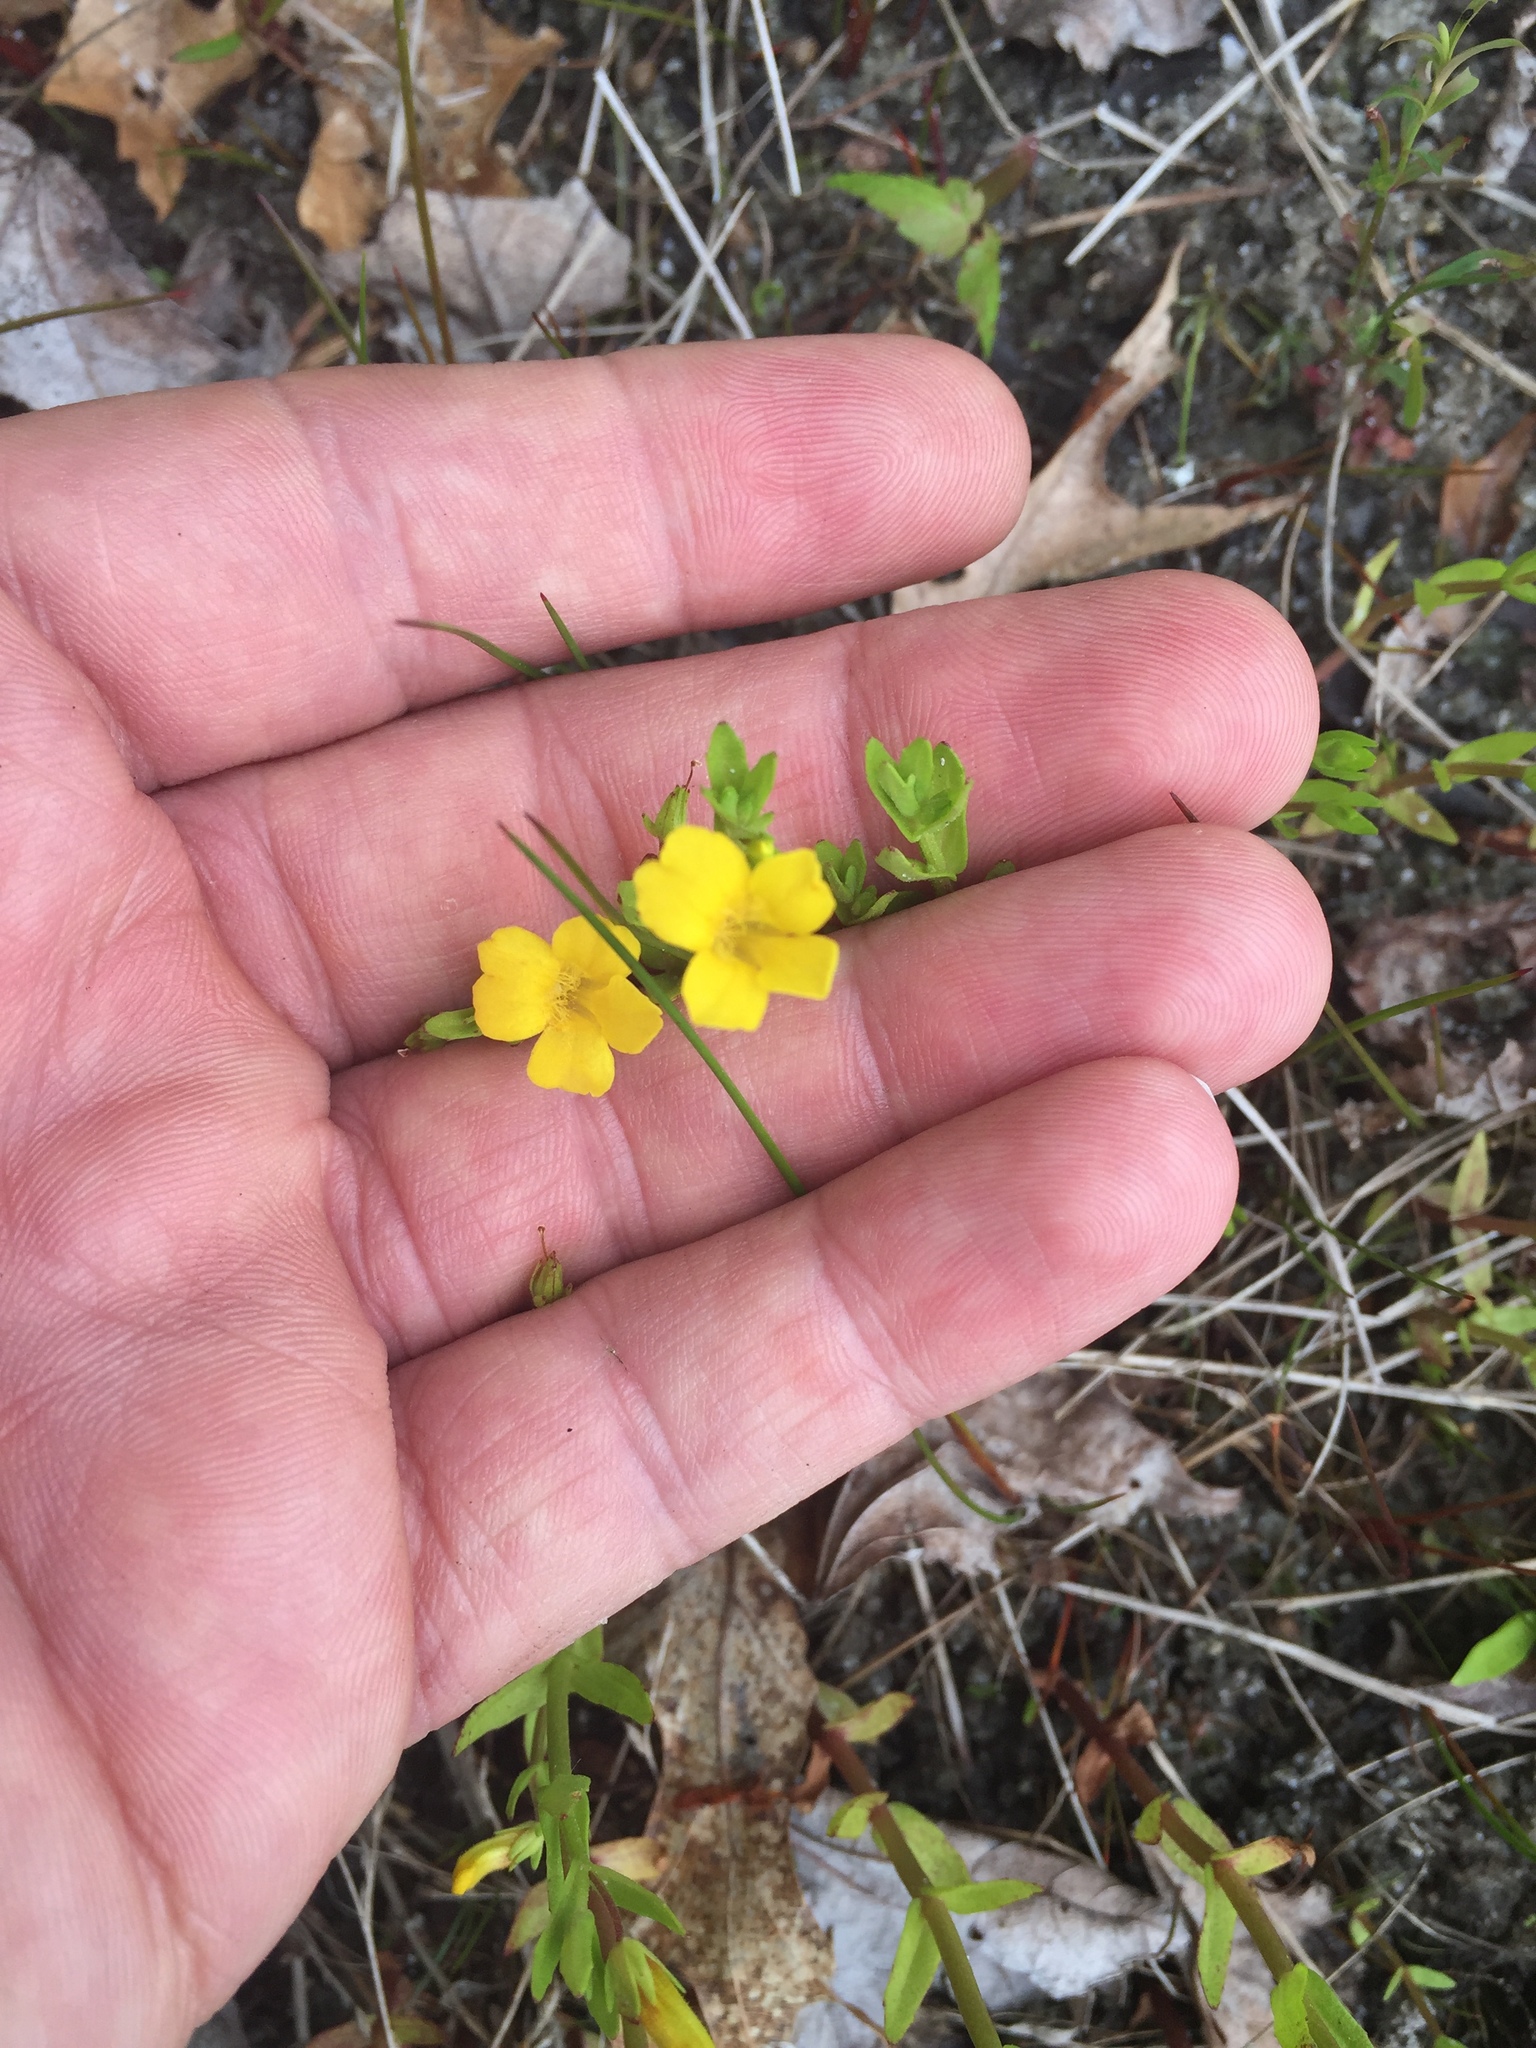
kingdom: Plantae
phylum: Tracheophyta
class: Magnoliopsida
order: Lamiales
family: Plantaginaceae
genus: Gratiola
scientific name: Gratiola lutea
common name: Golden hedge-hyssop
